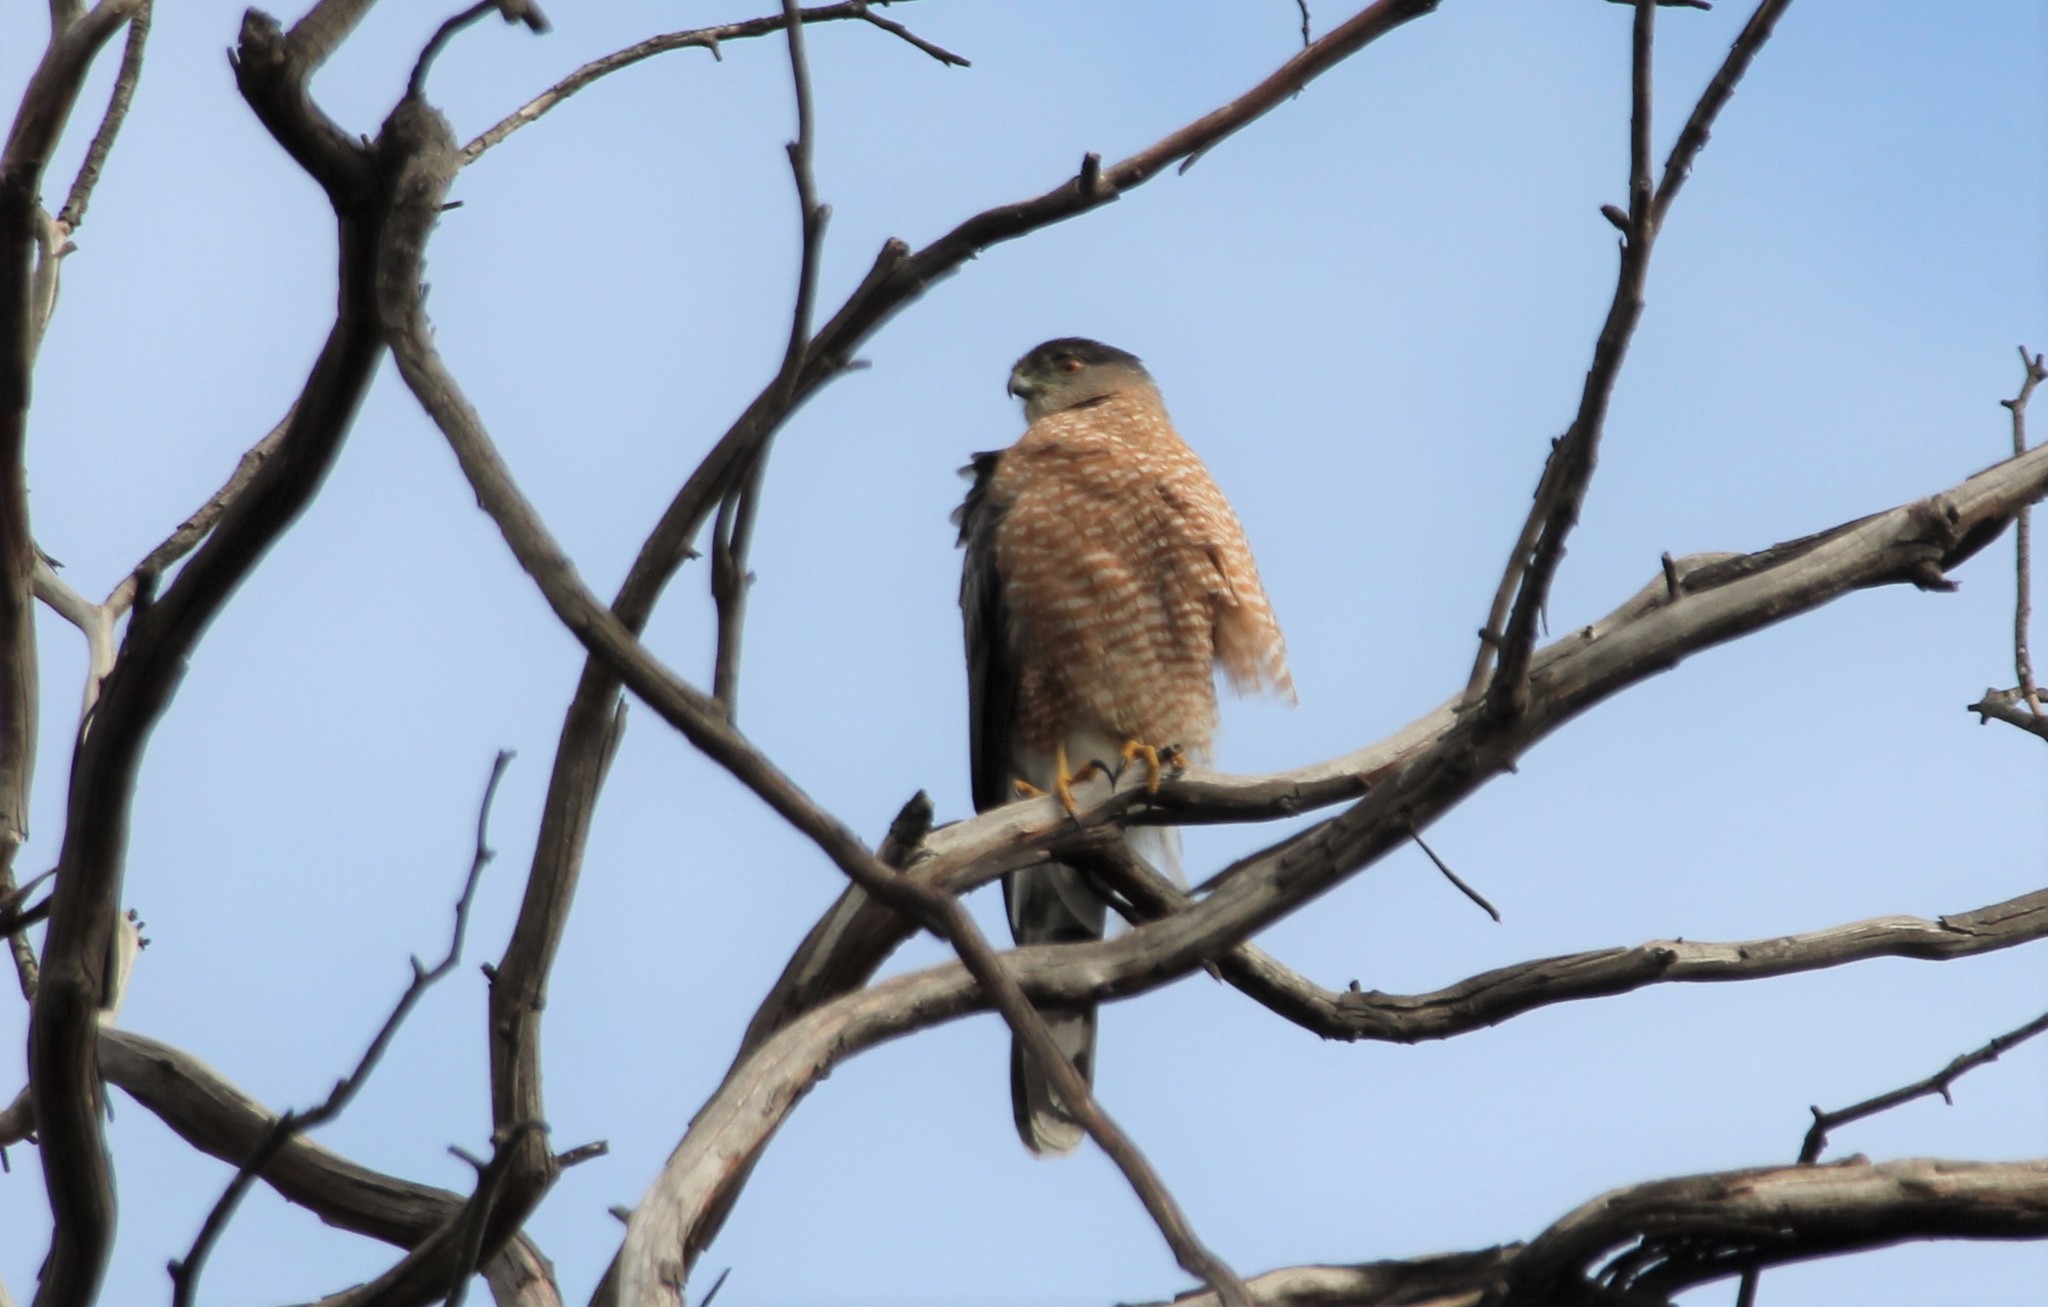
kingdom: Animalia
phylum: Chordata
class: Aves
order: Accipitriformes
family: Accipitridae
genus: Accipiter
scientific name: Accipiter cooperii
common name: Cooper's hawk
